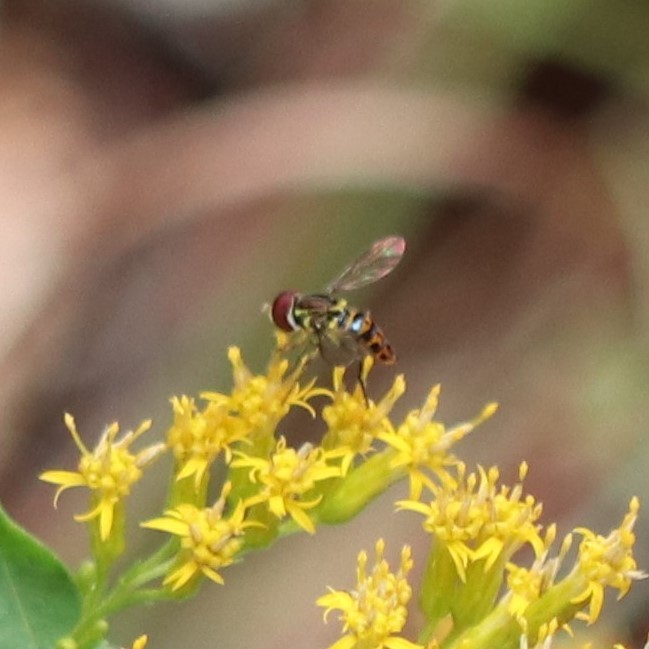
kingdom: Animalia
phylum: Arthropoda
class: Insecta
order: Diptera
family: Syrphidae
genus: Toxomerus
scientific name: Toxomerus parvulus
